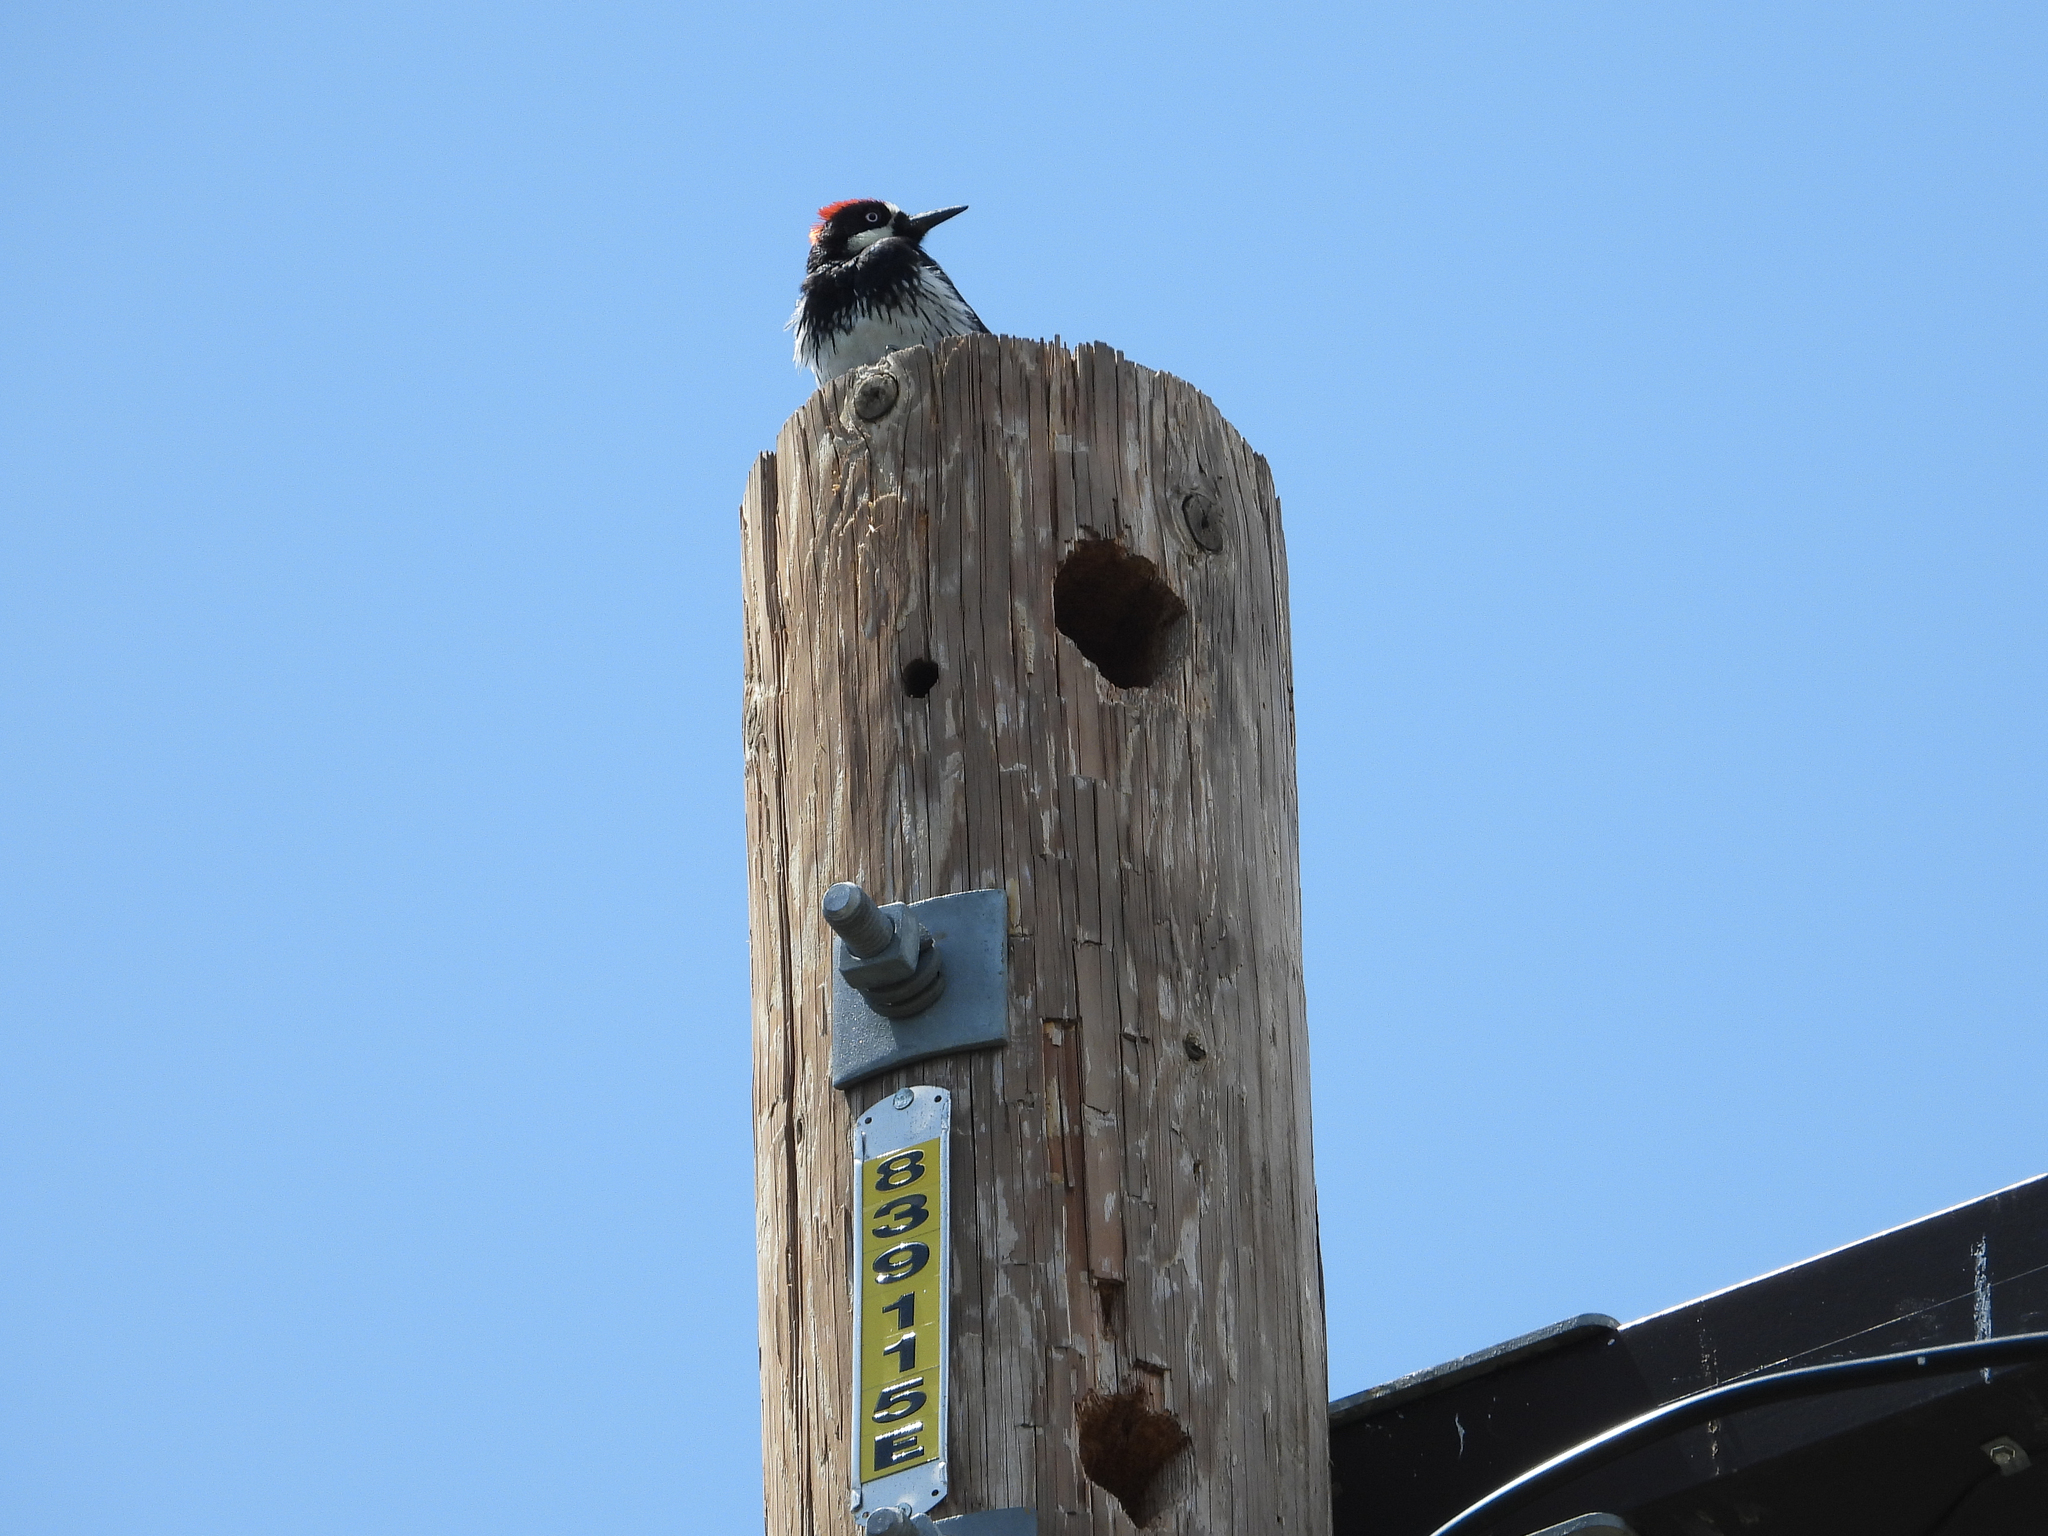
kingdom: Animalia
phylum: Chordata
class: Aves
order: Piciformes
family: Picidae
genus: Melanerpes
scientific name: Melanerpes formicivorus
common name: Acorn woodpecker
